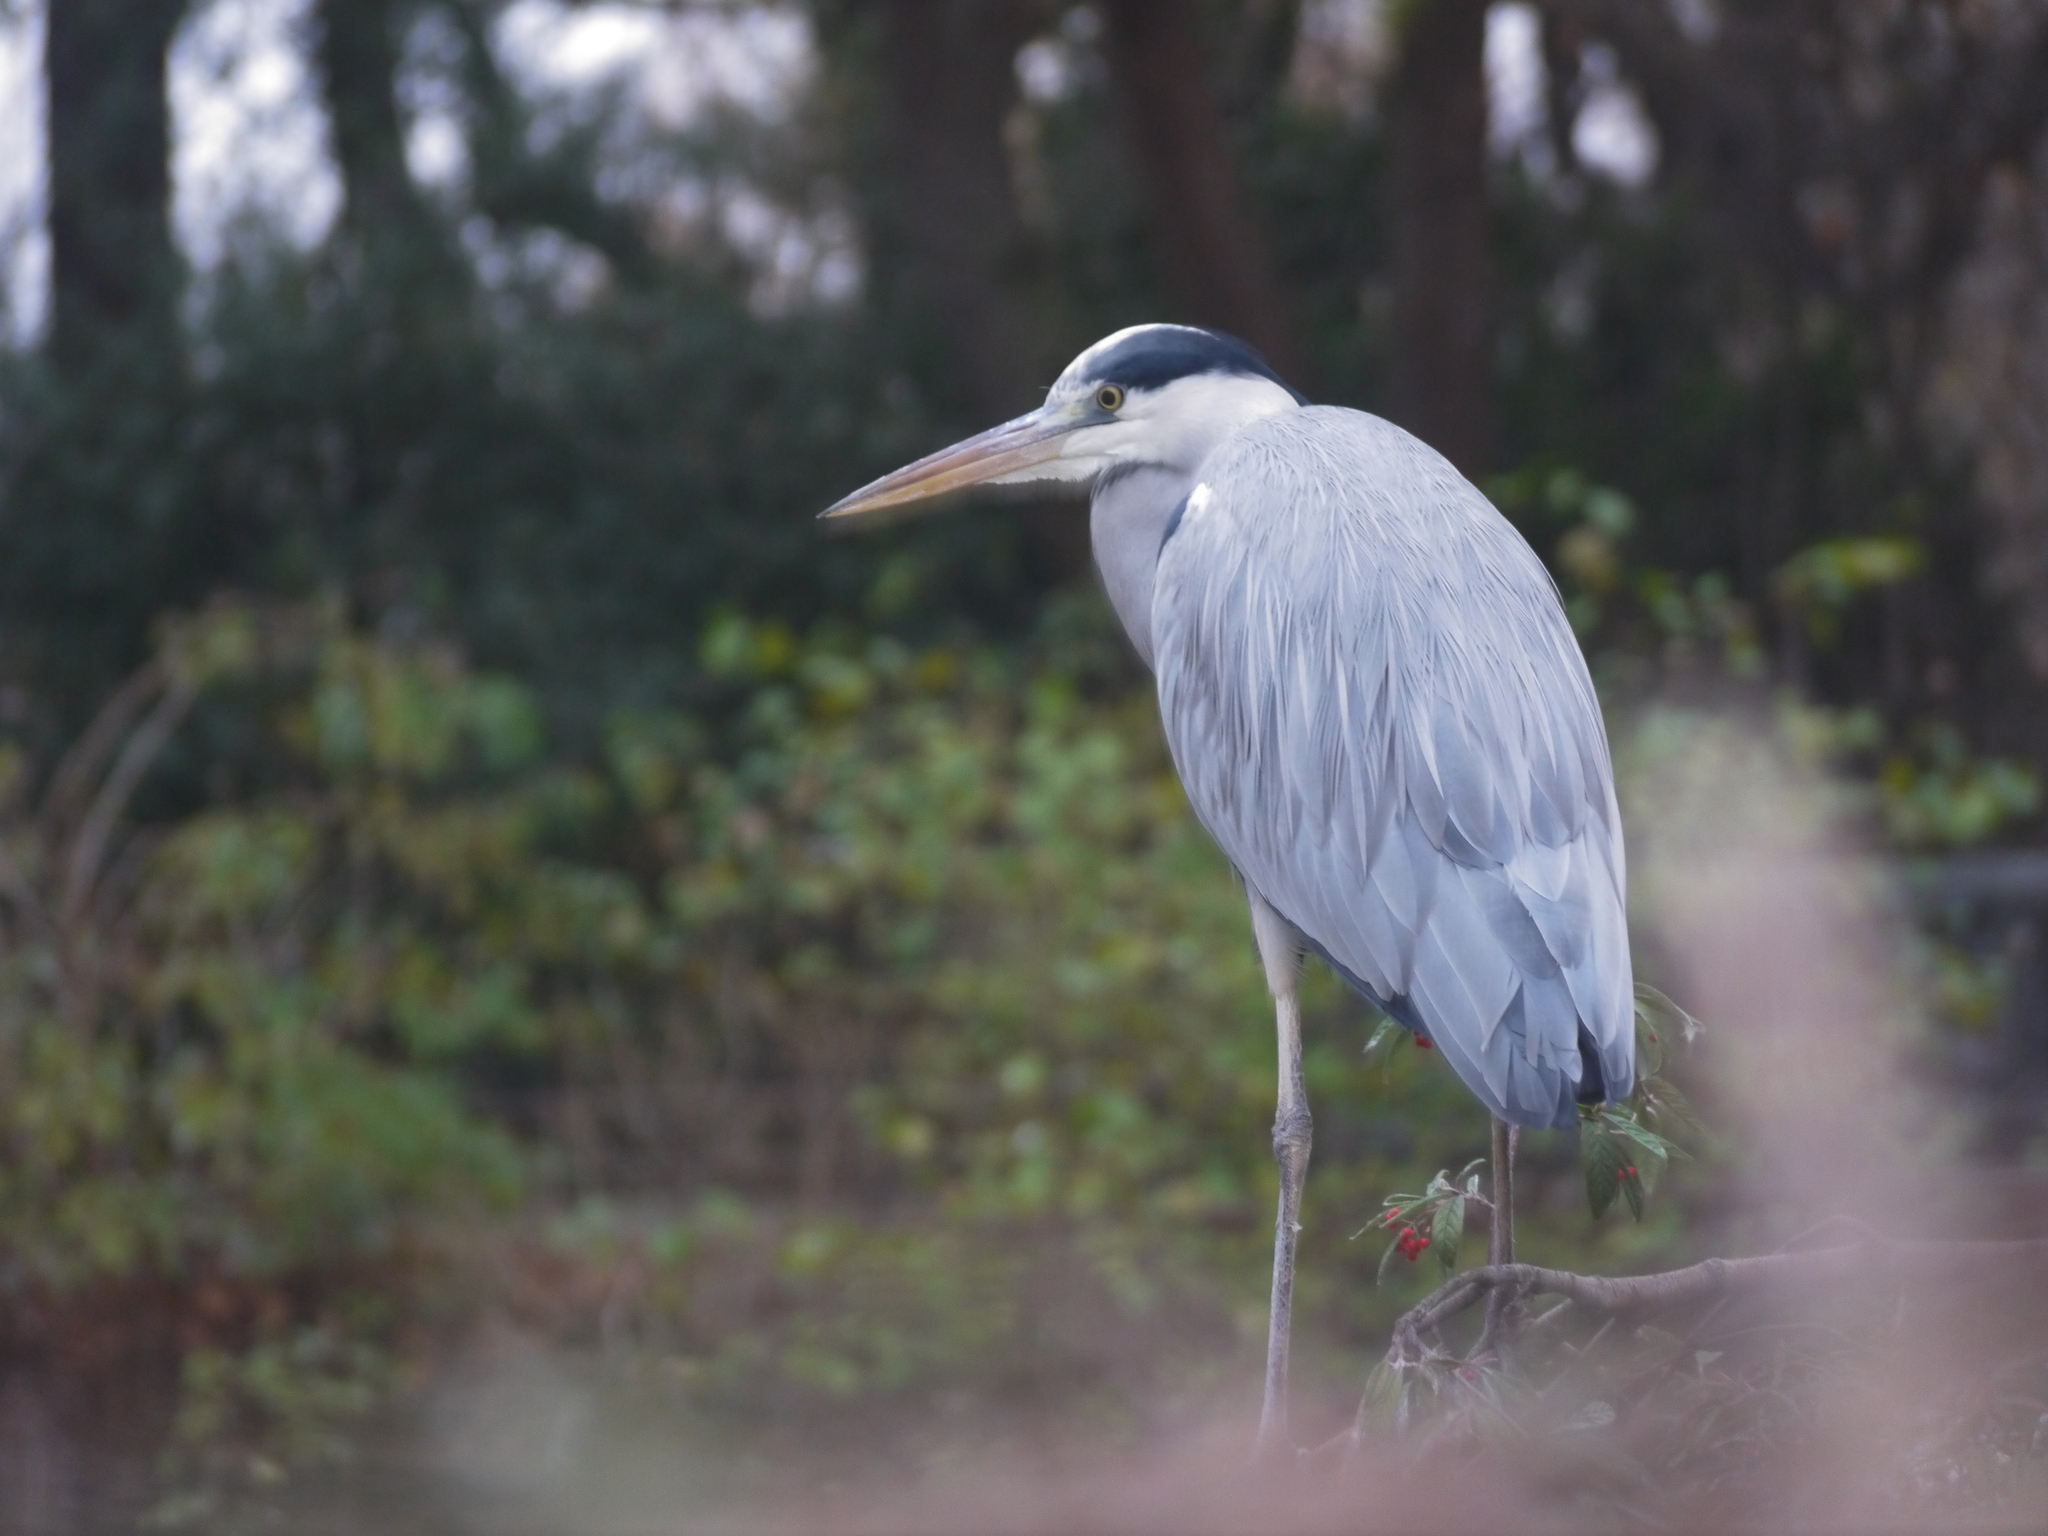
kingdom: Animalia
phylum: Chordata
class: Aves
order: Pelecaniformes
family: Ardeidae
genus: Ardea
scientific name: Ardea cinerea
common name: Grey heron
